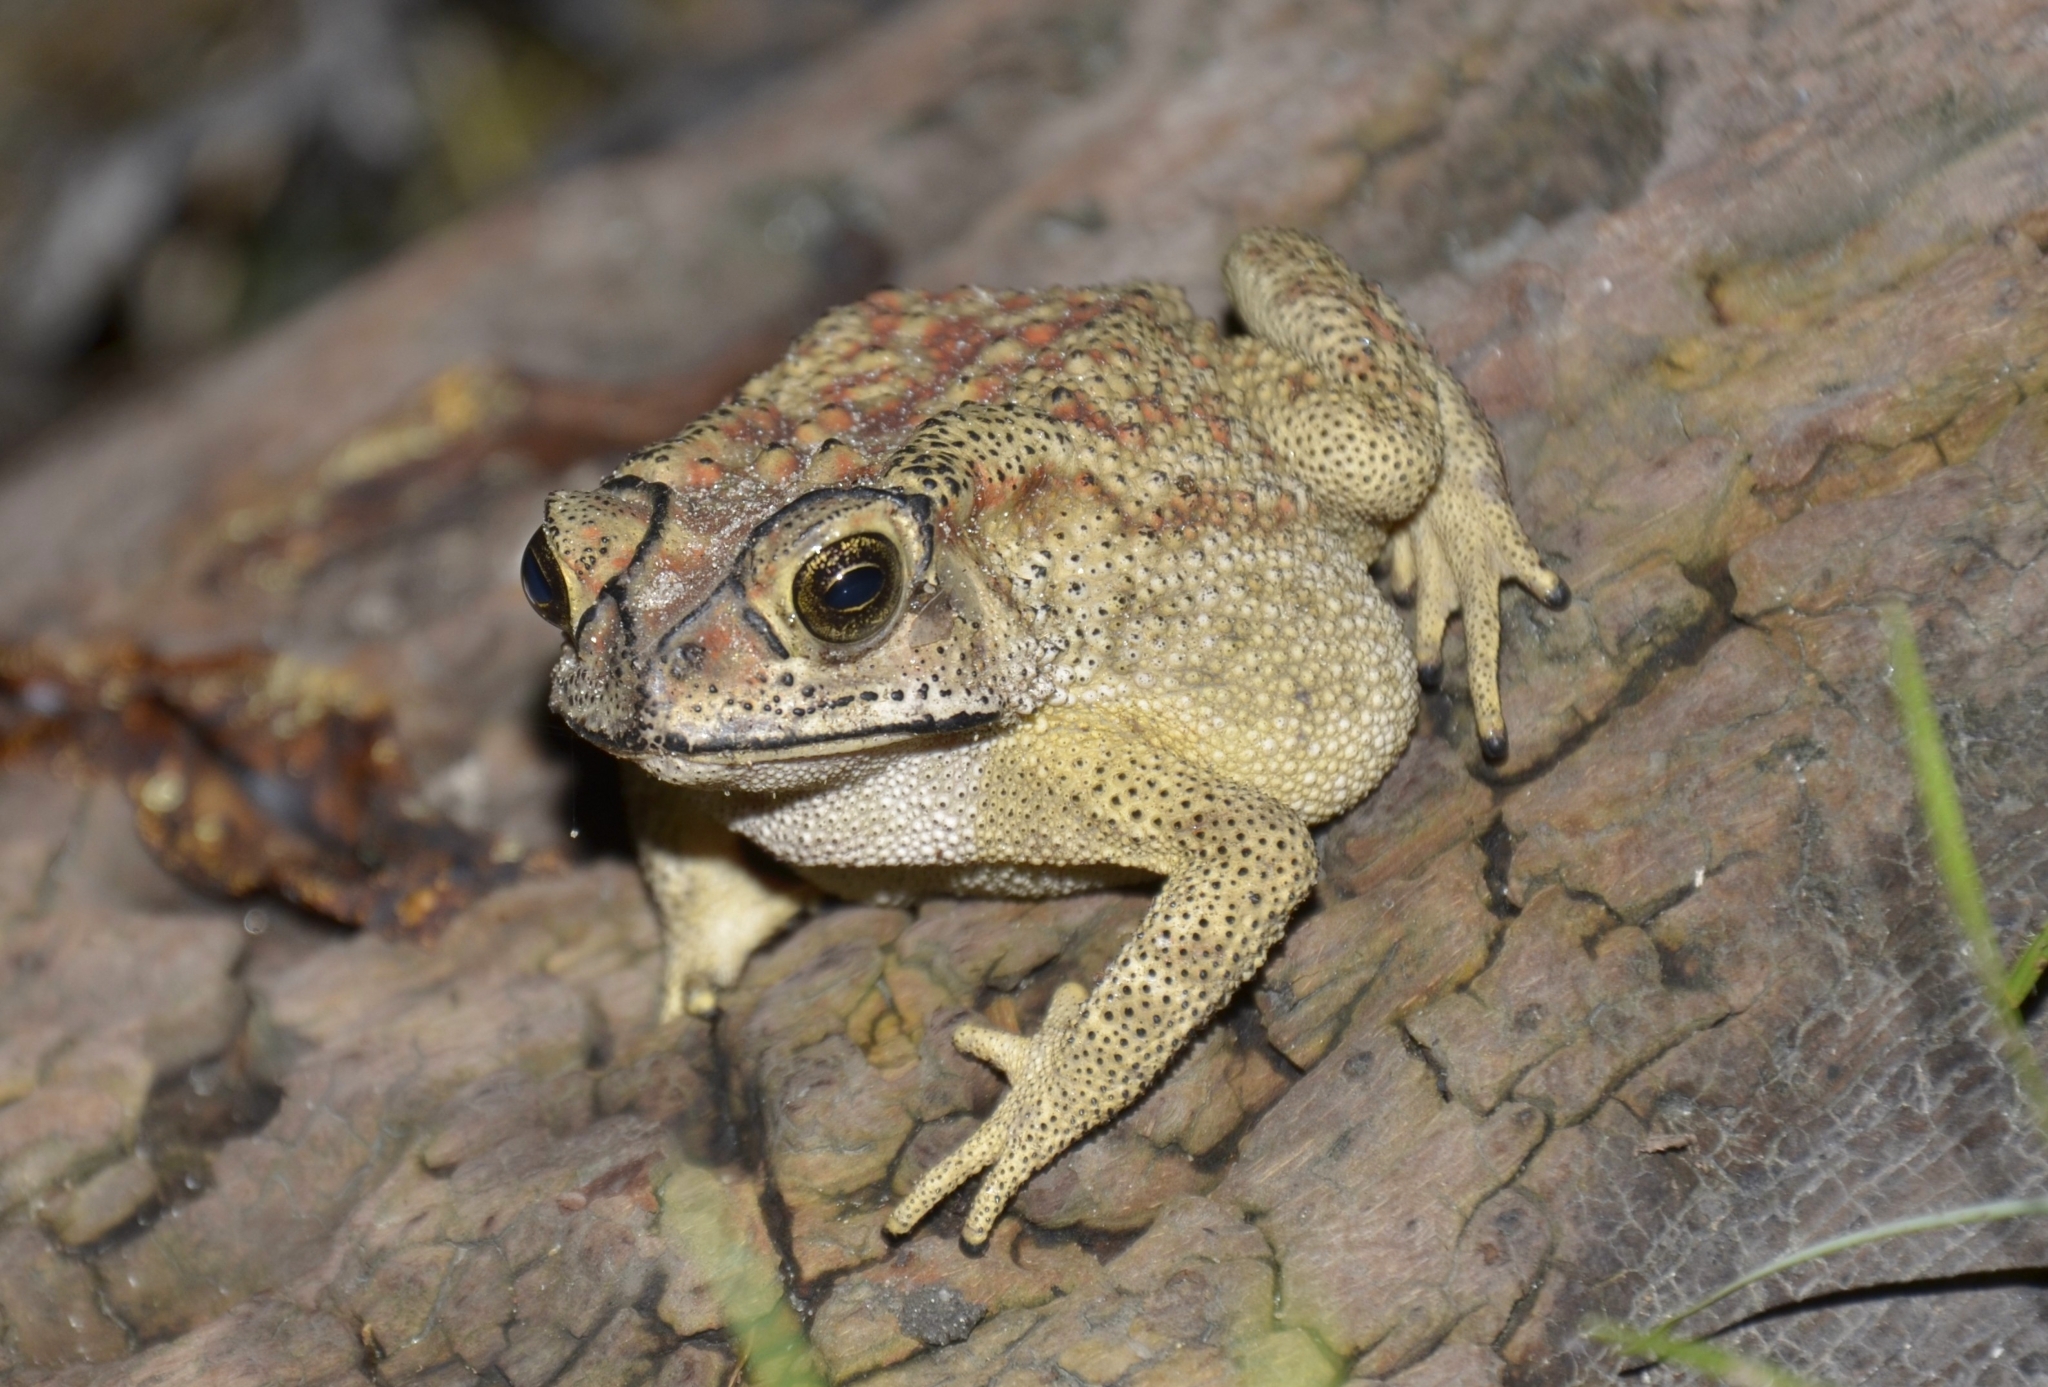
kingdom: Animalia
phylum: Chordata
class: Amphibia
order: Anura
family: Bufonidae
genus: Duttaphrynus
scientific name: Duttaphrynus melanostictus
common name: Common sunda toad
